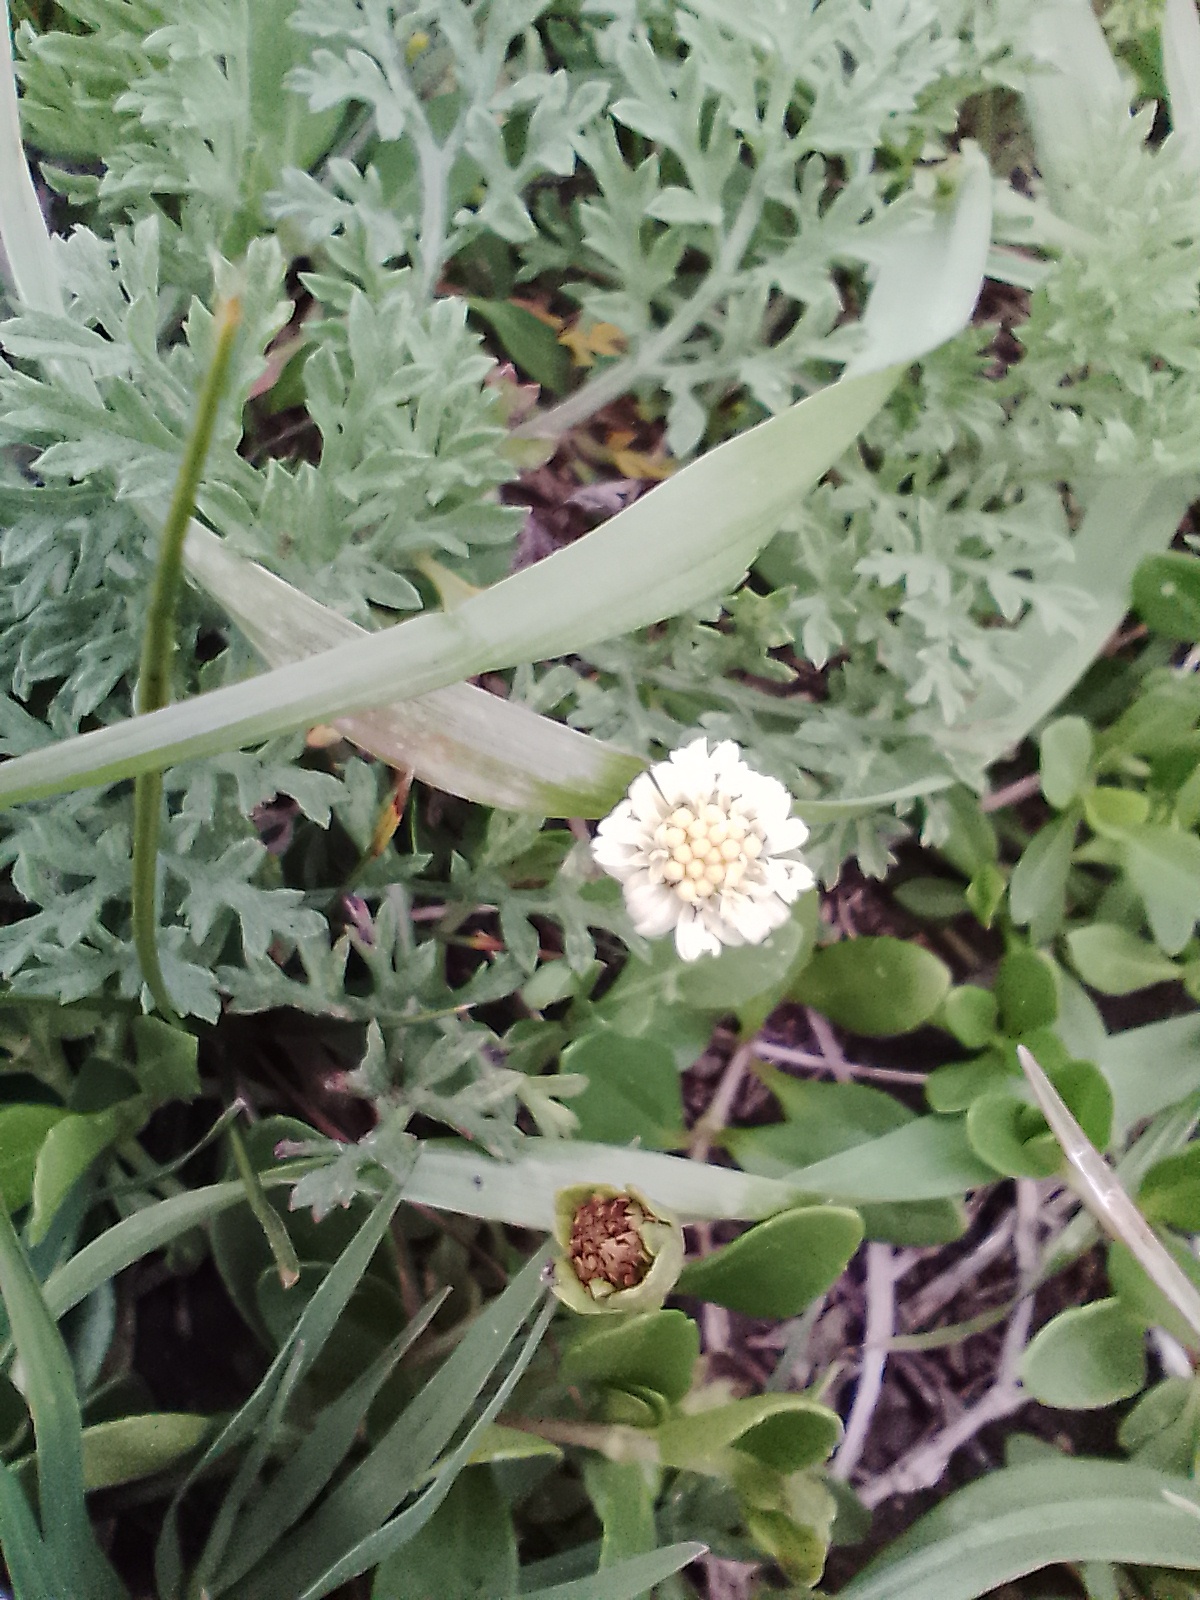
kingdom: Plantae
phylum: Tracheophyta
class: Magnoliopsida
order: Asterales
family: Asteraceae
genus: Eclipta
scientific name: Eclipta elliptica
